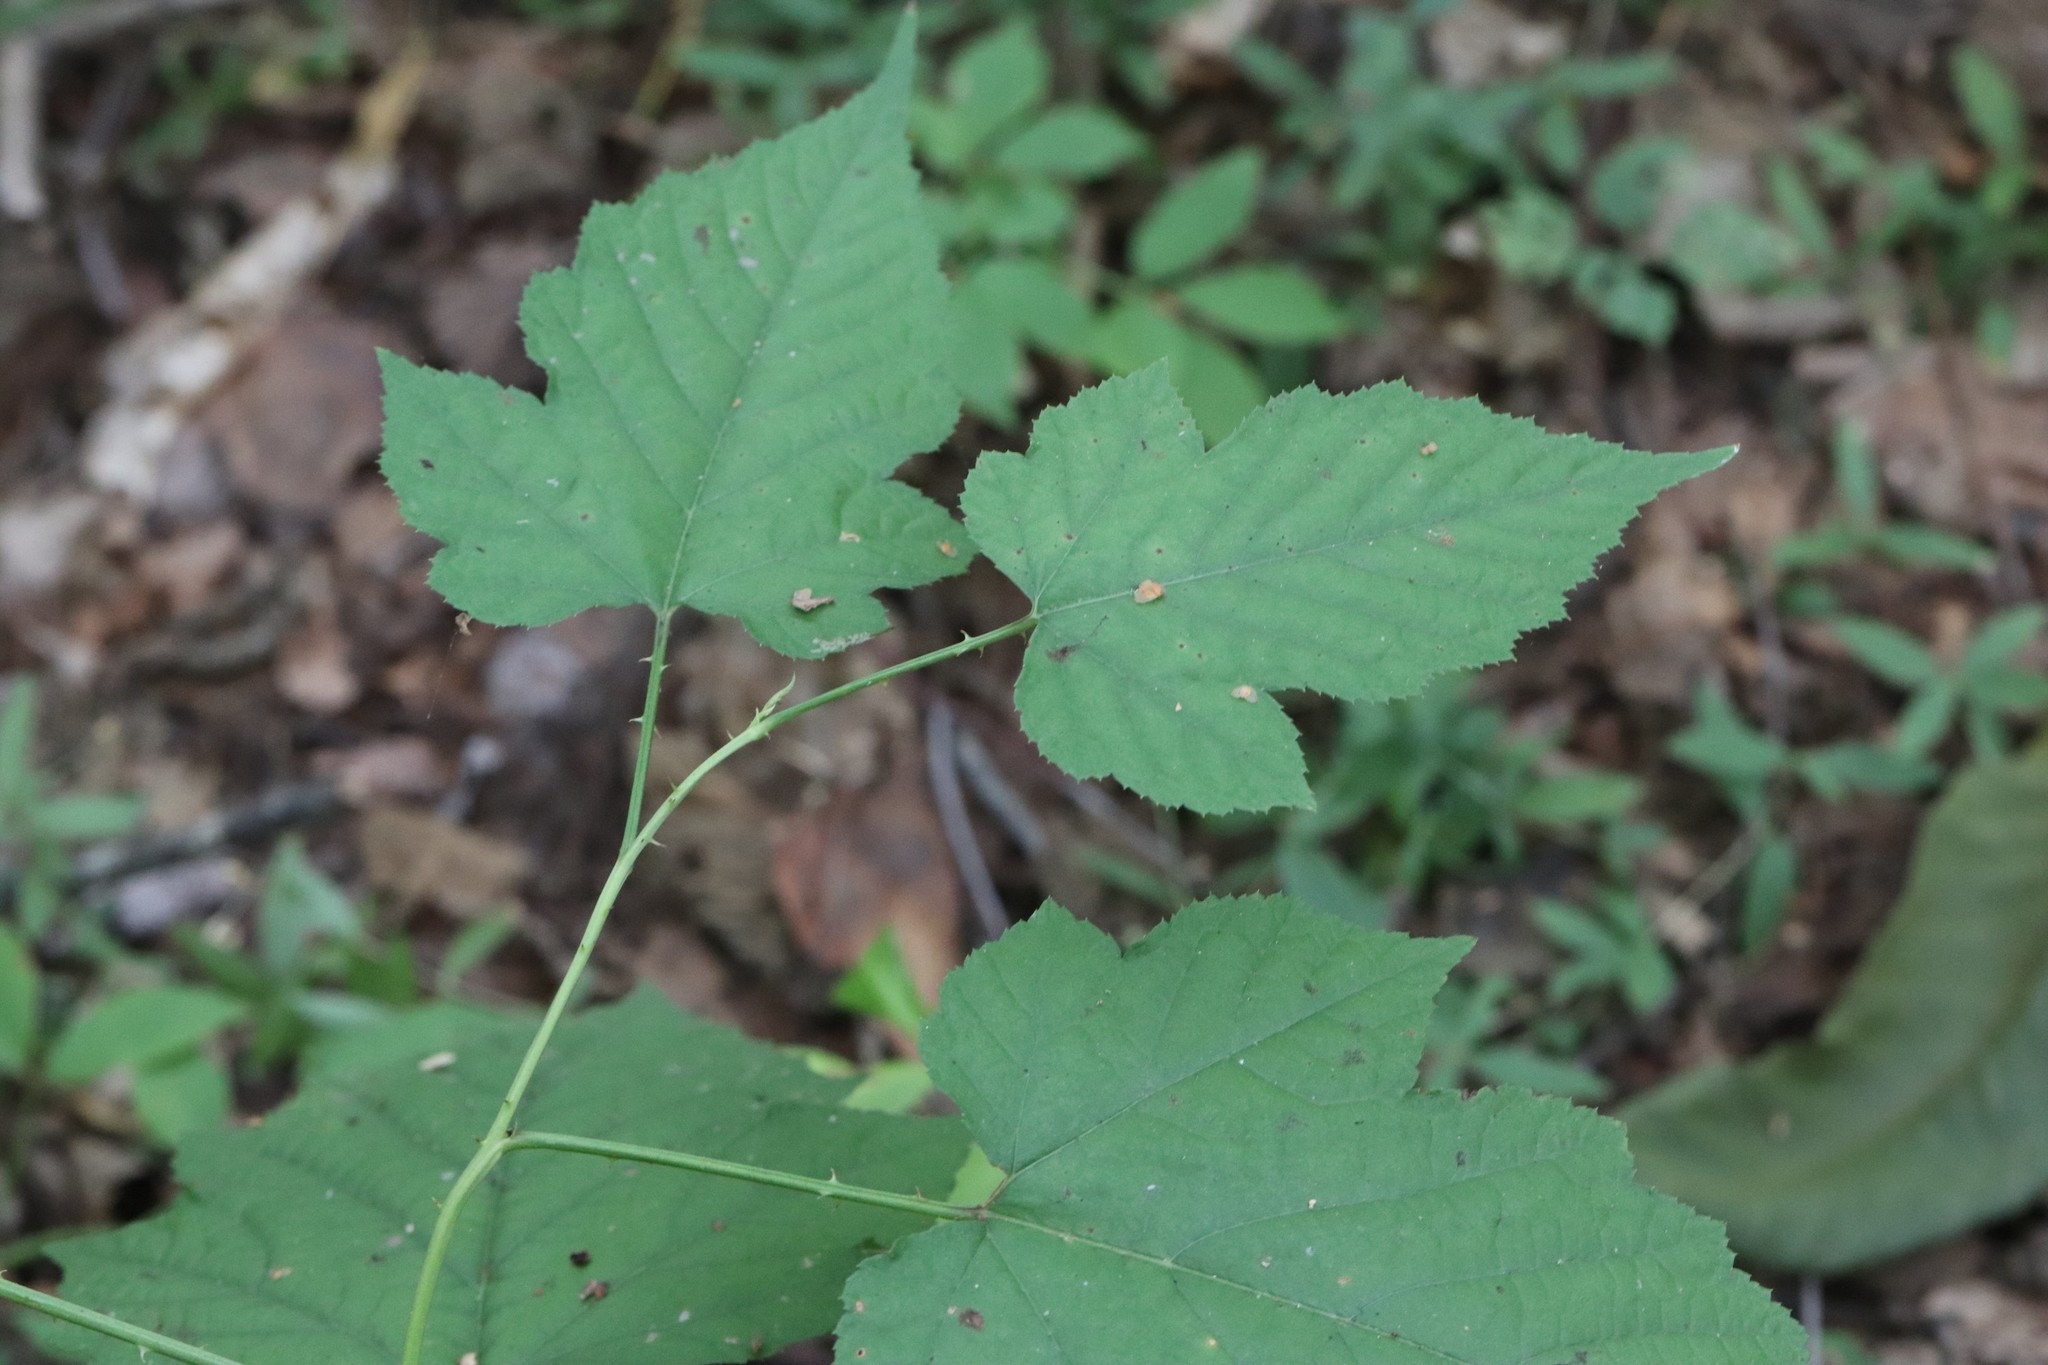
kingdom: Plantae
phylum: Tracheophyta
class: Magnoliopsida
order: Rosales
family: Rosaceae
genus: Rubus
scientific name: Rubus crataegifolius
